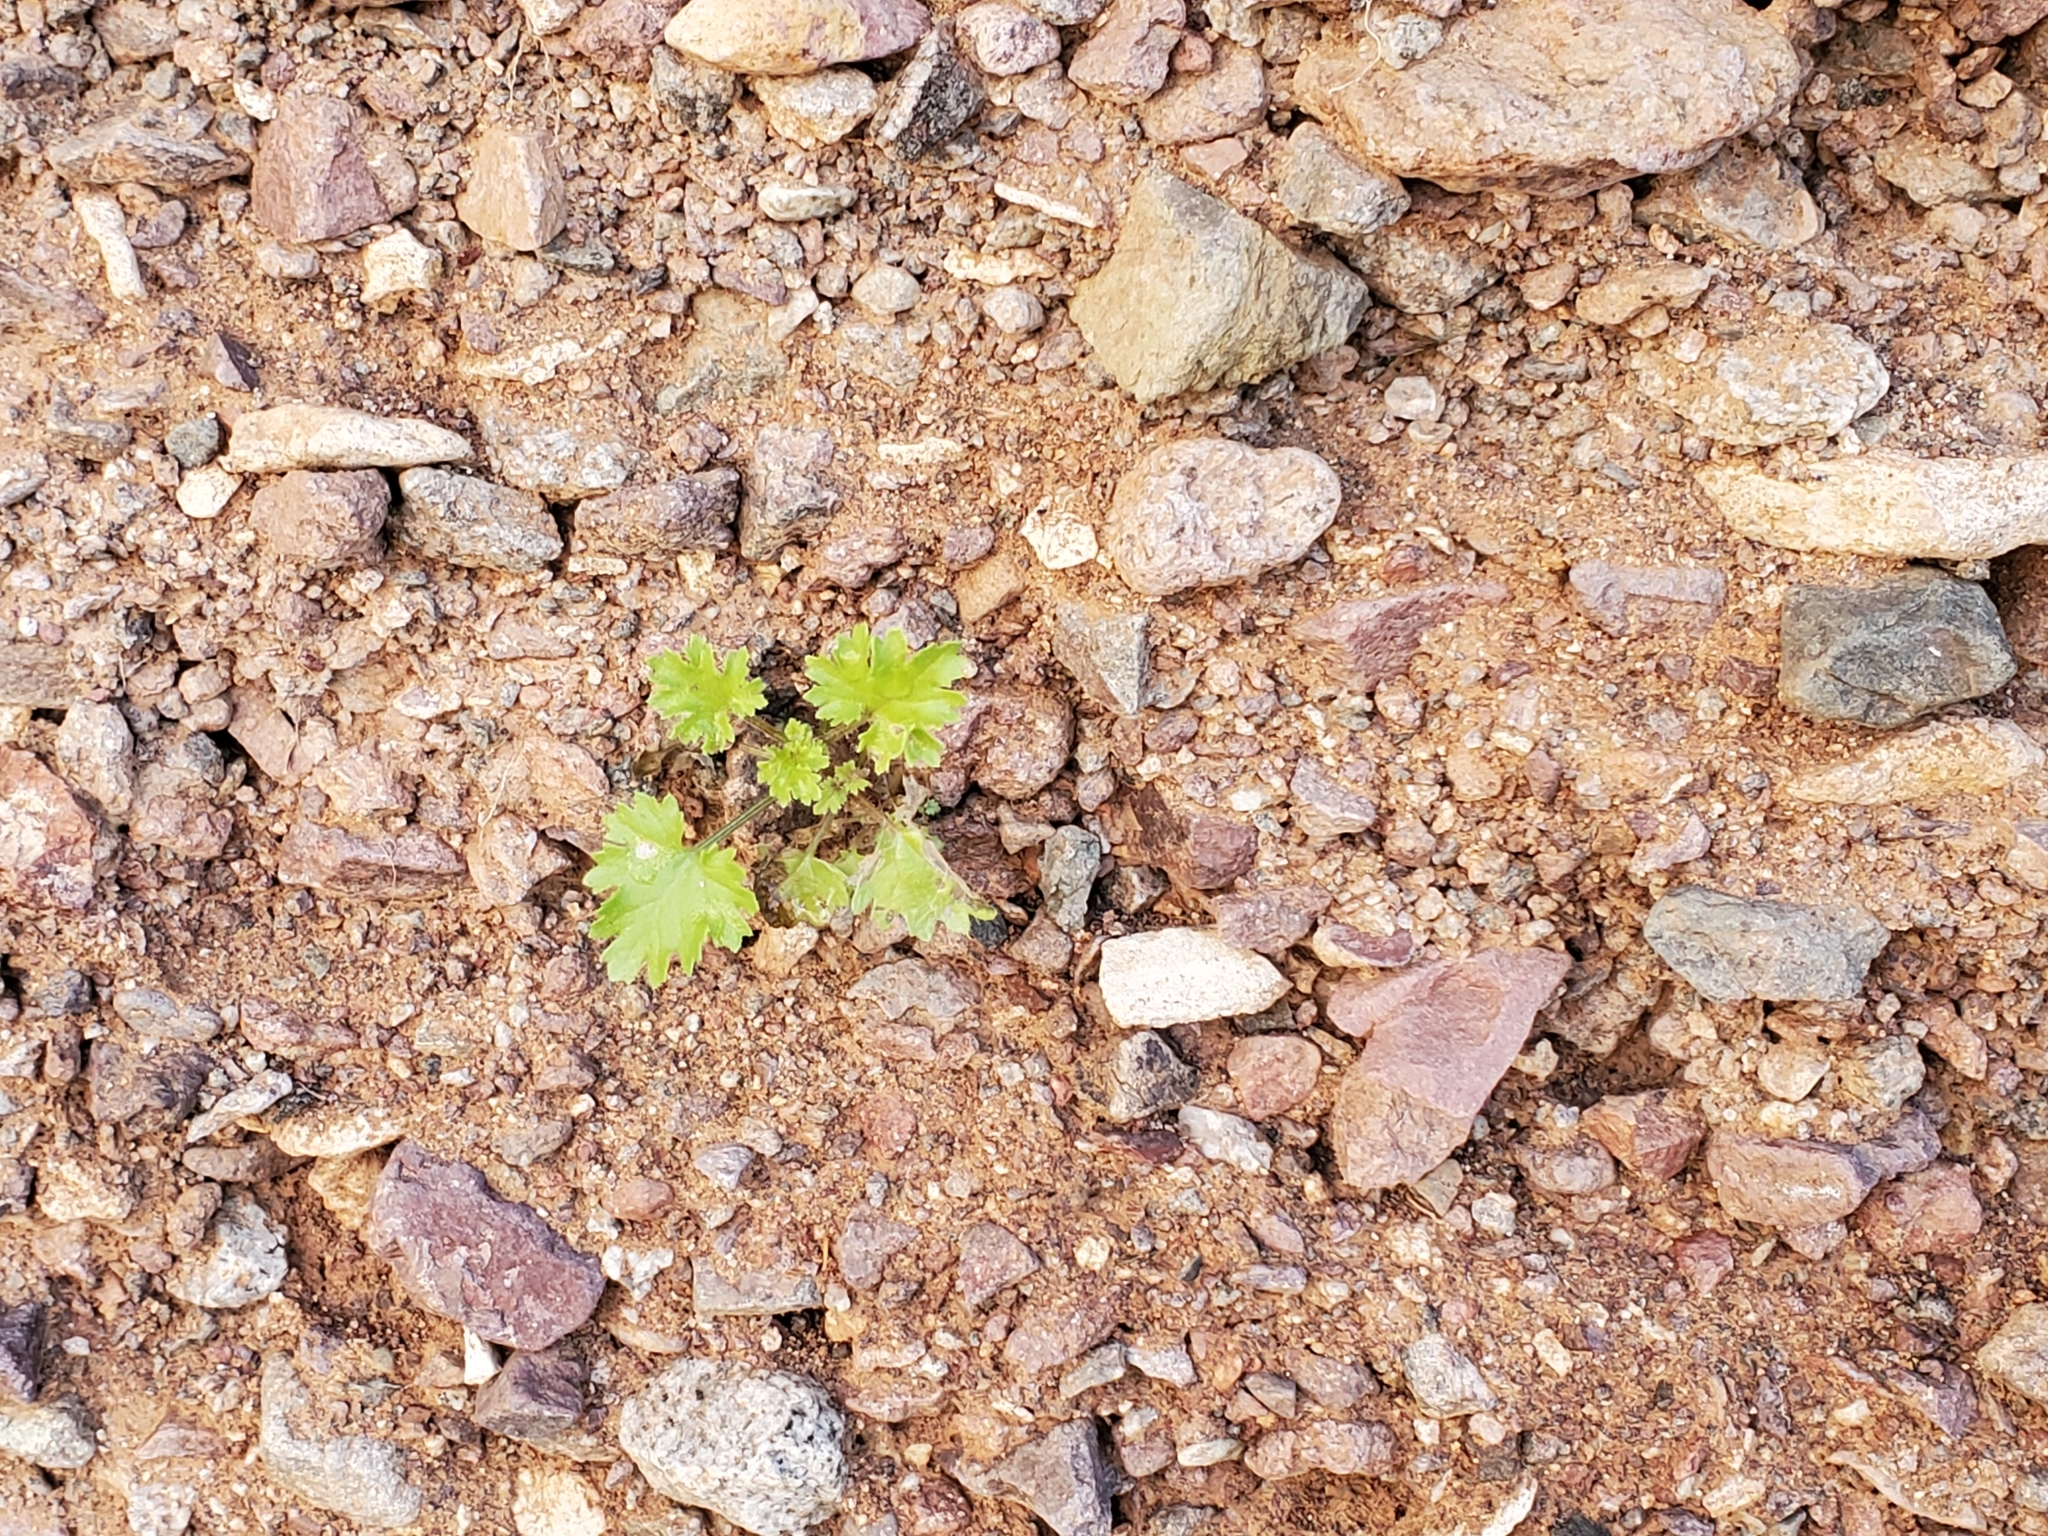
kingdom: Plantae
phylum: Tracheophyta
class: Magnoliopsida
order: Asterales
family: Asteraceae
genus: Laphamia
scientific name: Laphamia emoryi
